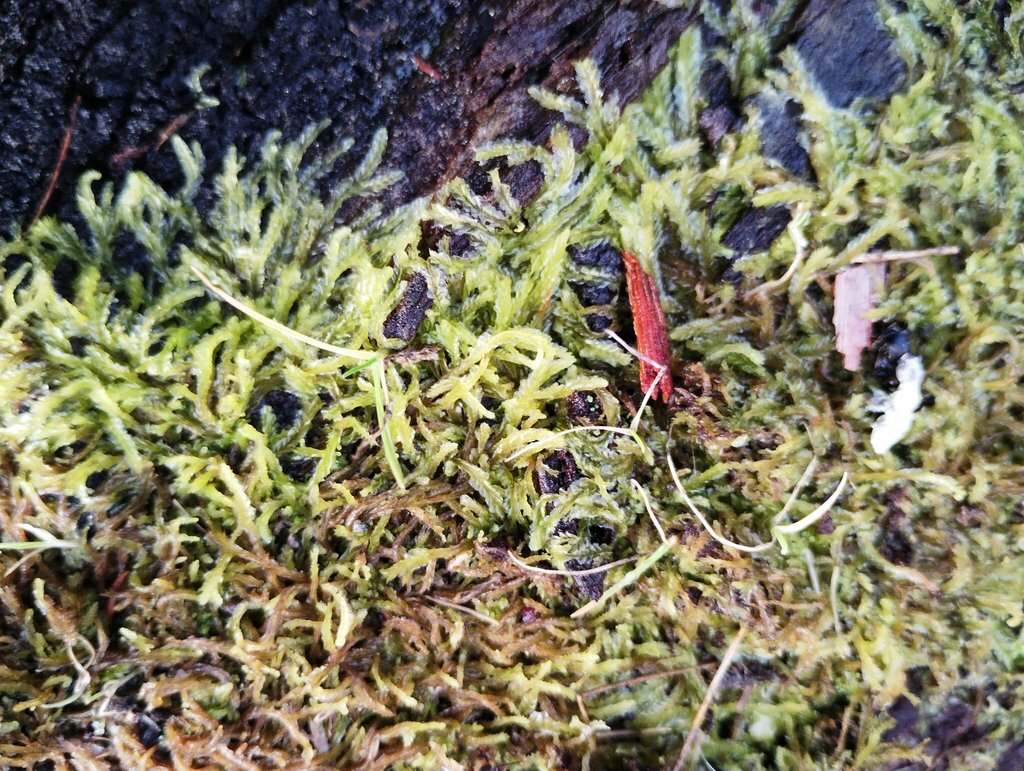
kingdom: Plantae
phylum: Marchantiophyta
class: Jungermanniopsida
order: Jungermanniales
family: Lophocoleaceae
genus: Lophocolea
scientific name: Lophocolea semiteres
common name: Southern crestwort
